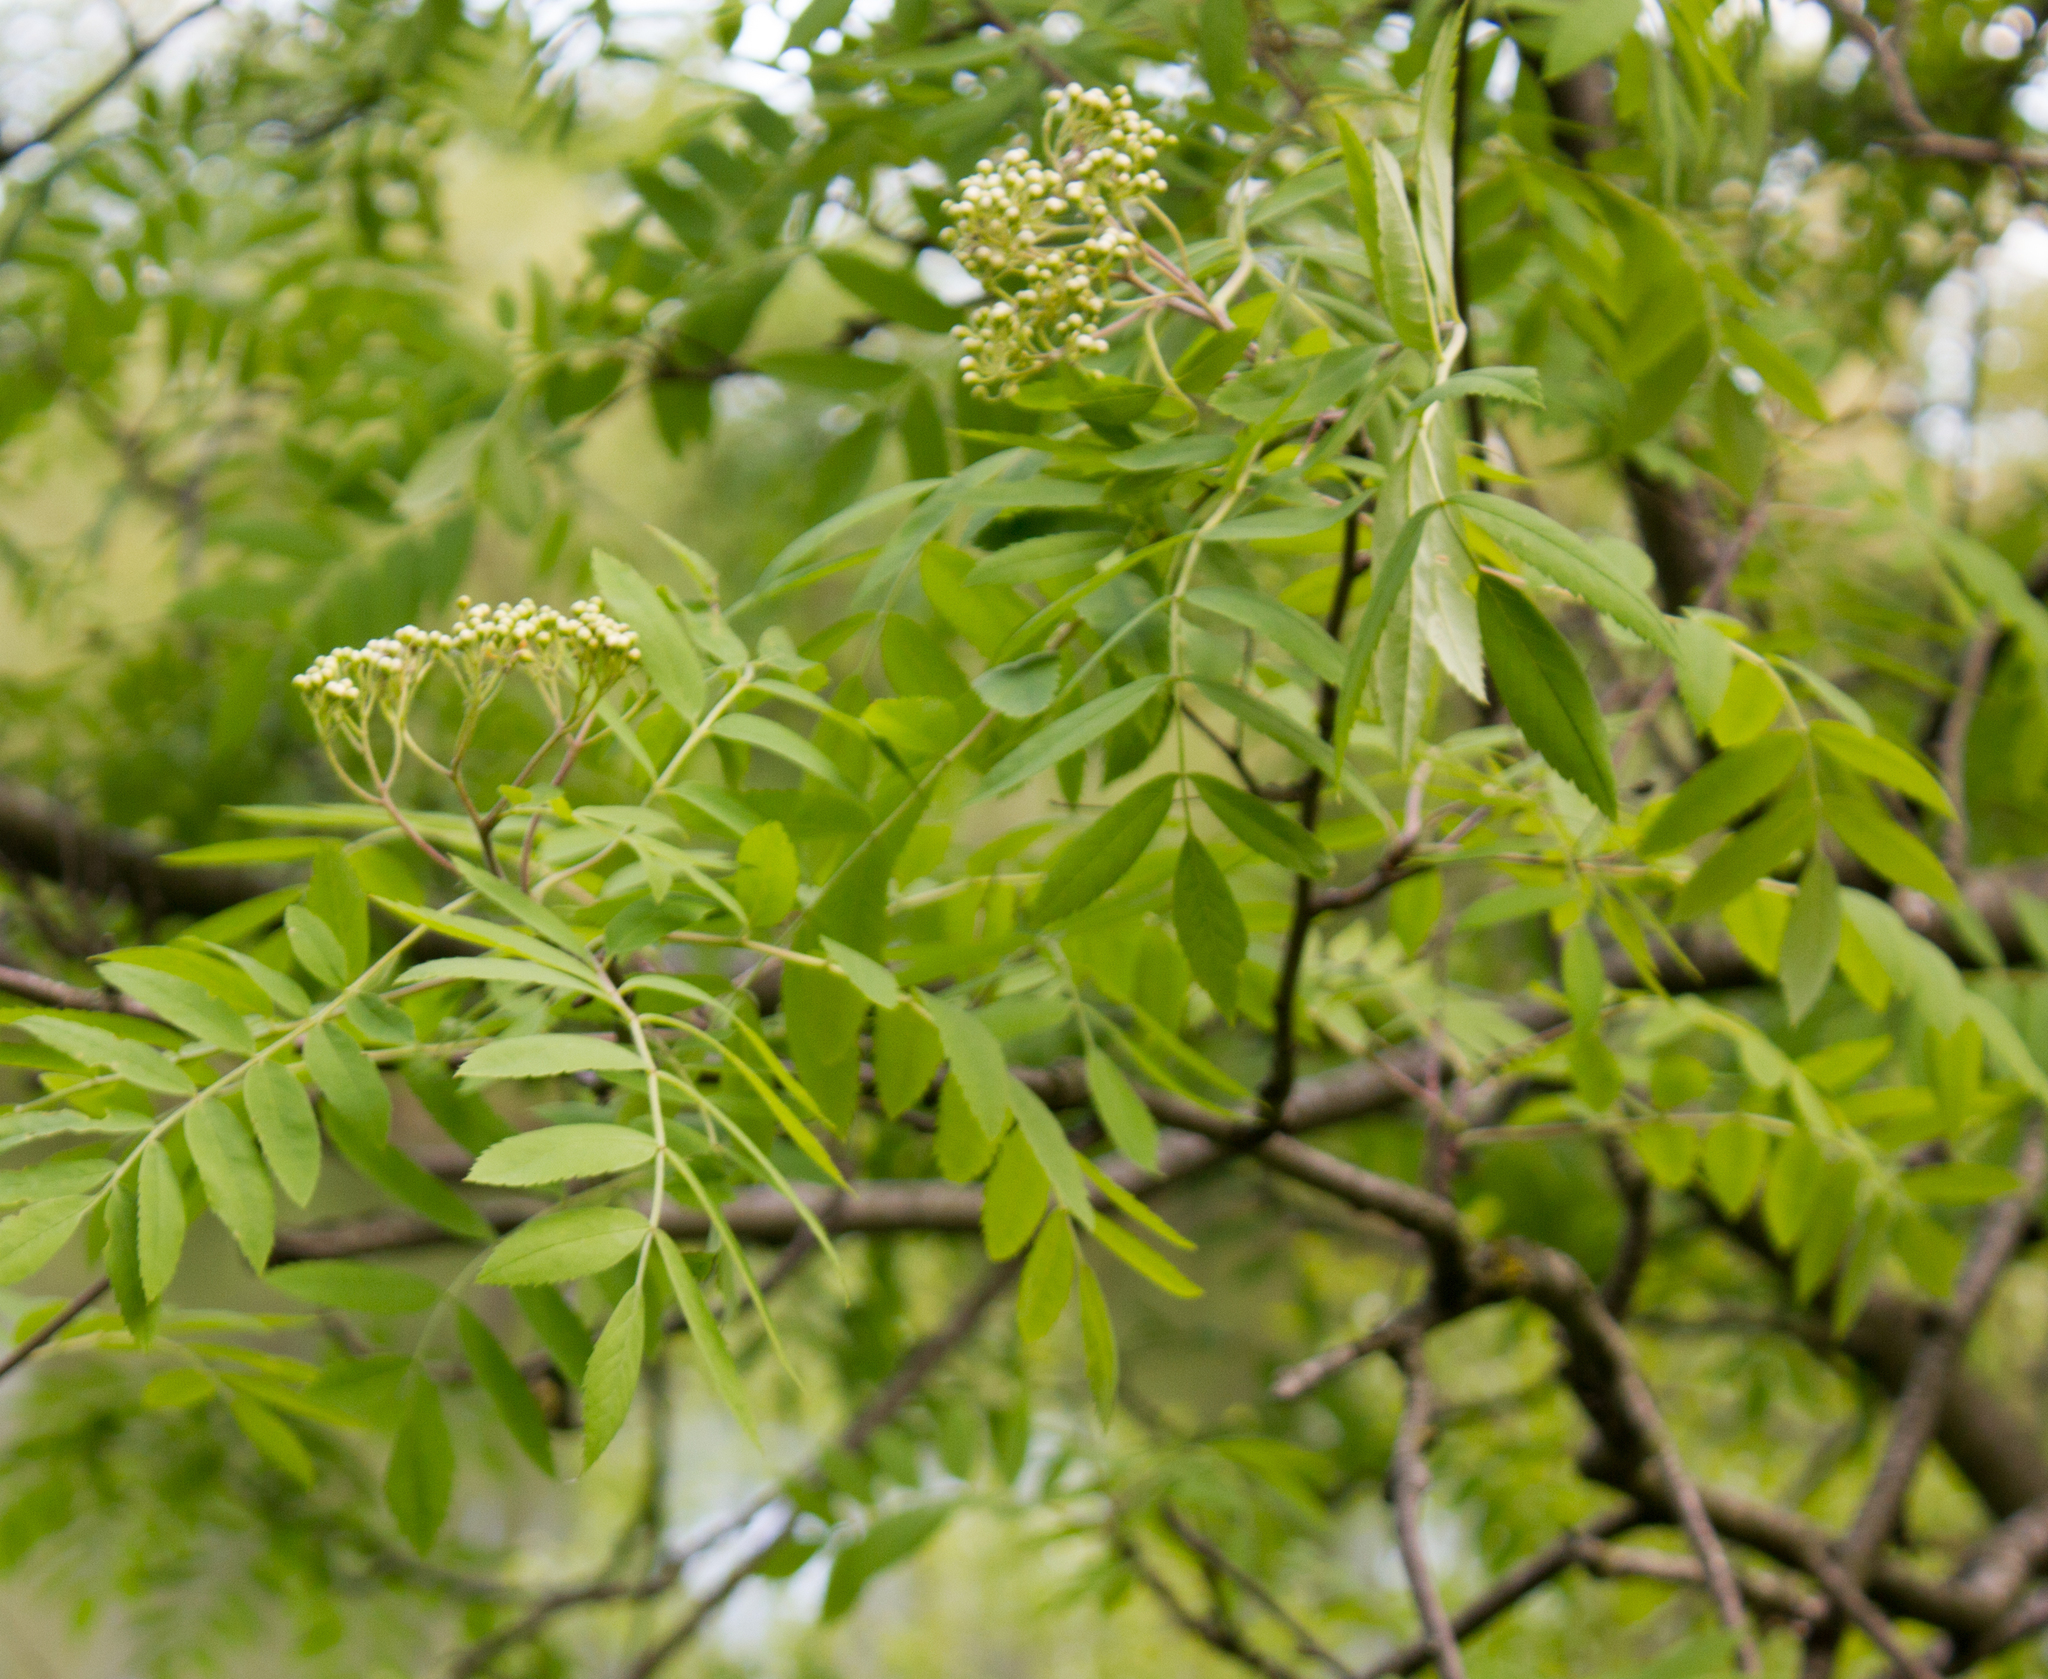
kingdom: Plantae
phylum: Tracheophyta
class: Magnoliopsida
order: Rosales
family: Rosaceae
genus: Sorbus
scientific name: Sorbus aucuparia
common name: Rowan
